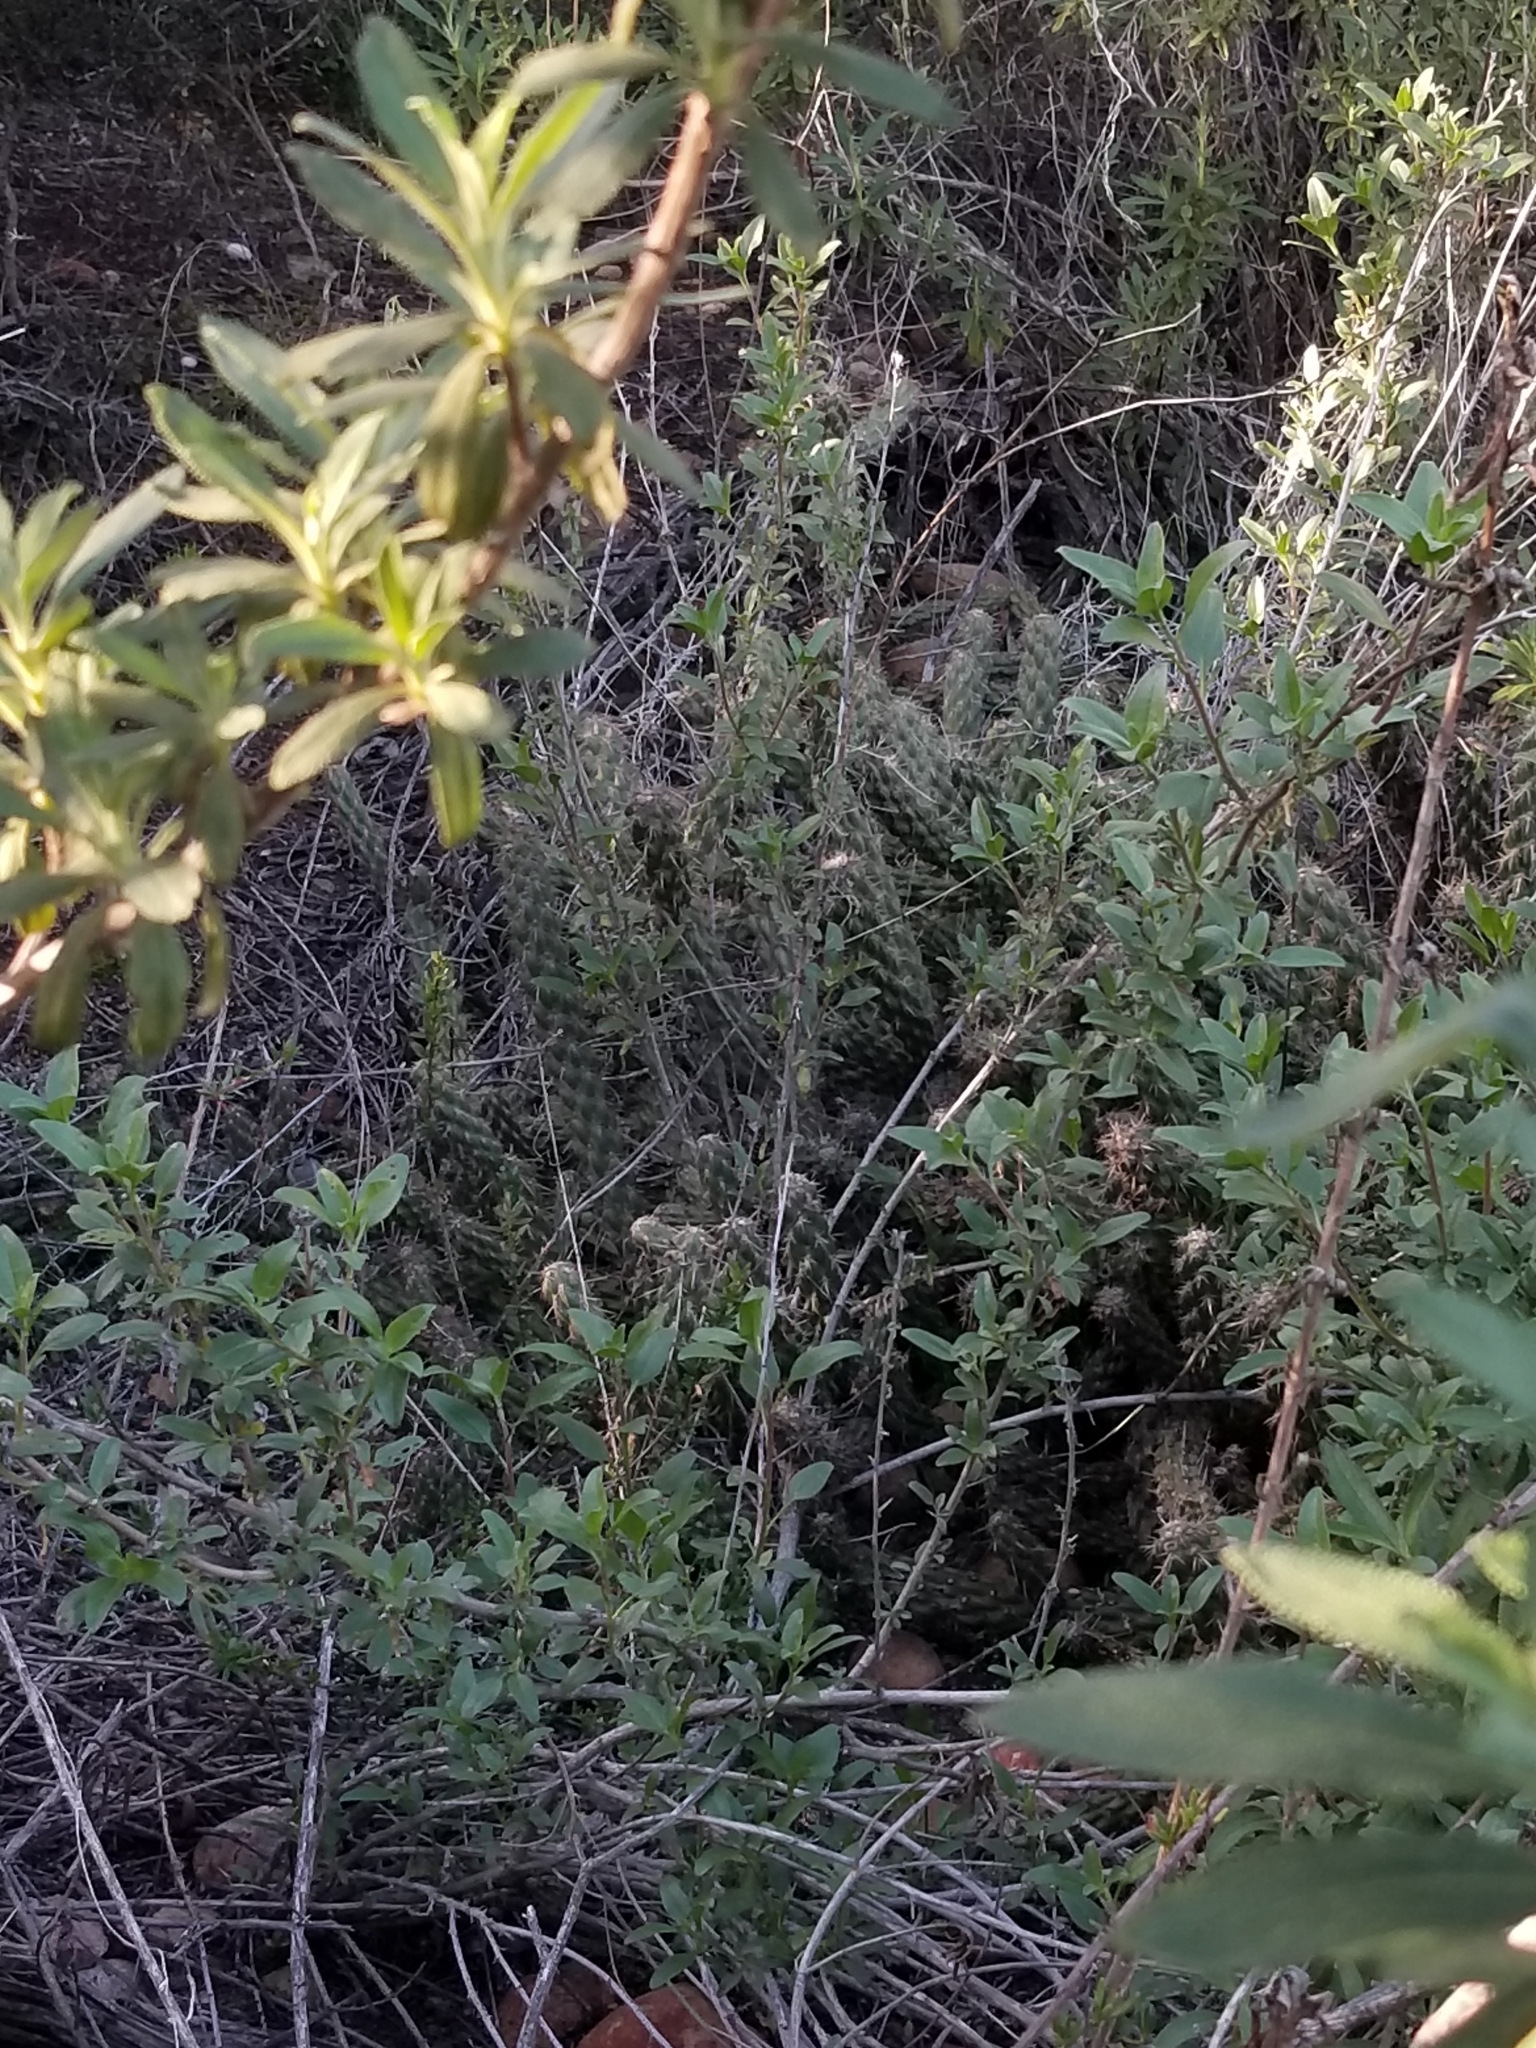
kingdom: Plantae
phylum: Tracheophyta
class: Magnoliopsida
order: Caryophyllales
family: Cactaceae
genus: Cylindropuntia
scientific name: Cylindropuntia californica
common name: Snake cholla
